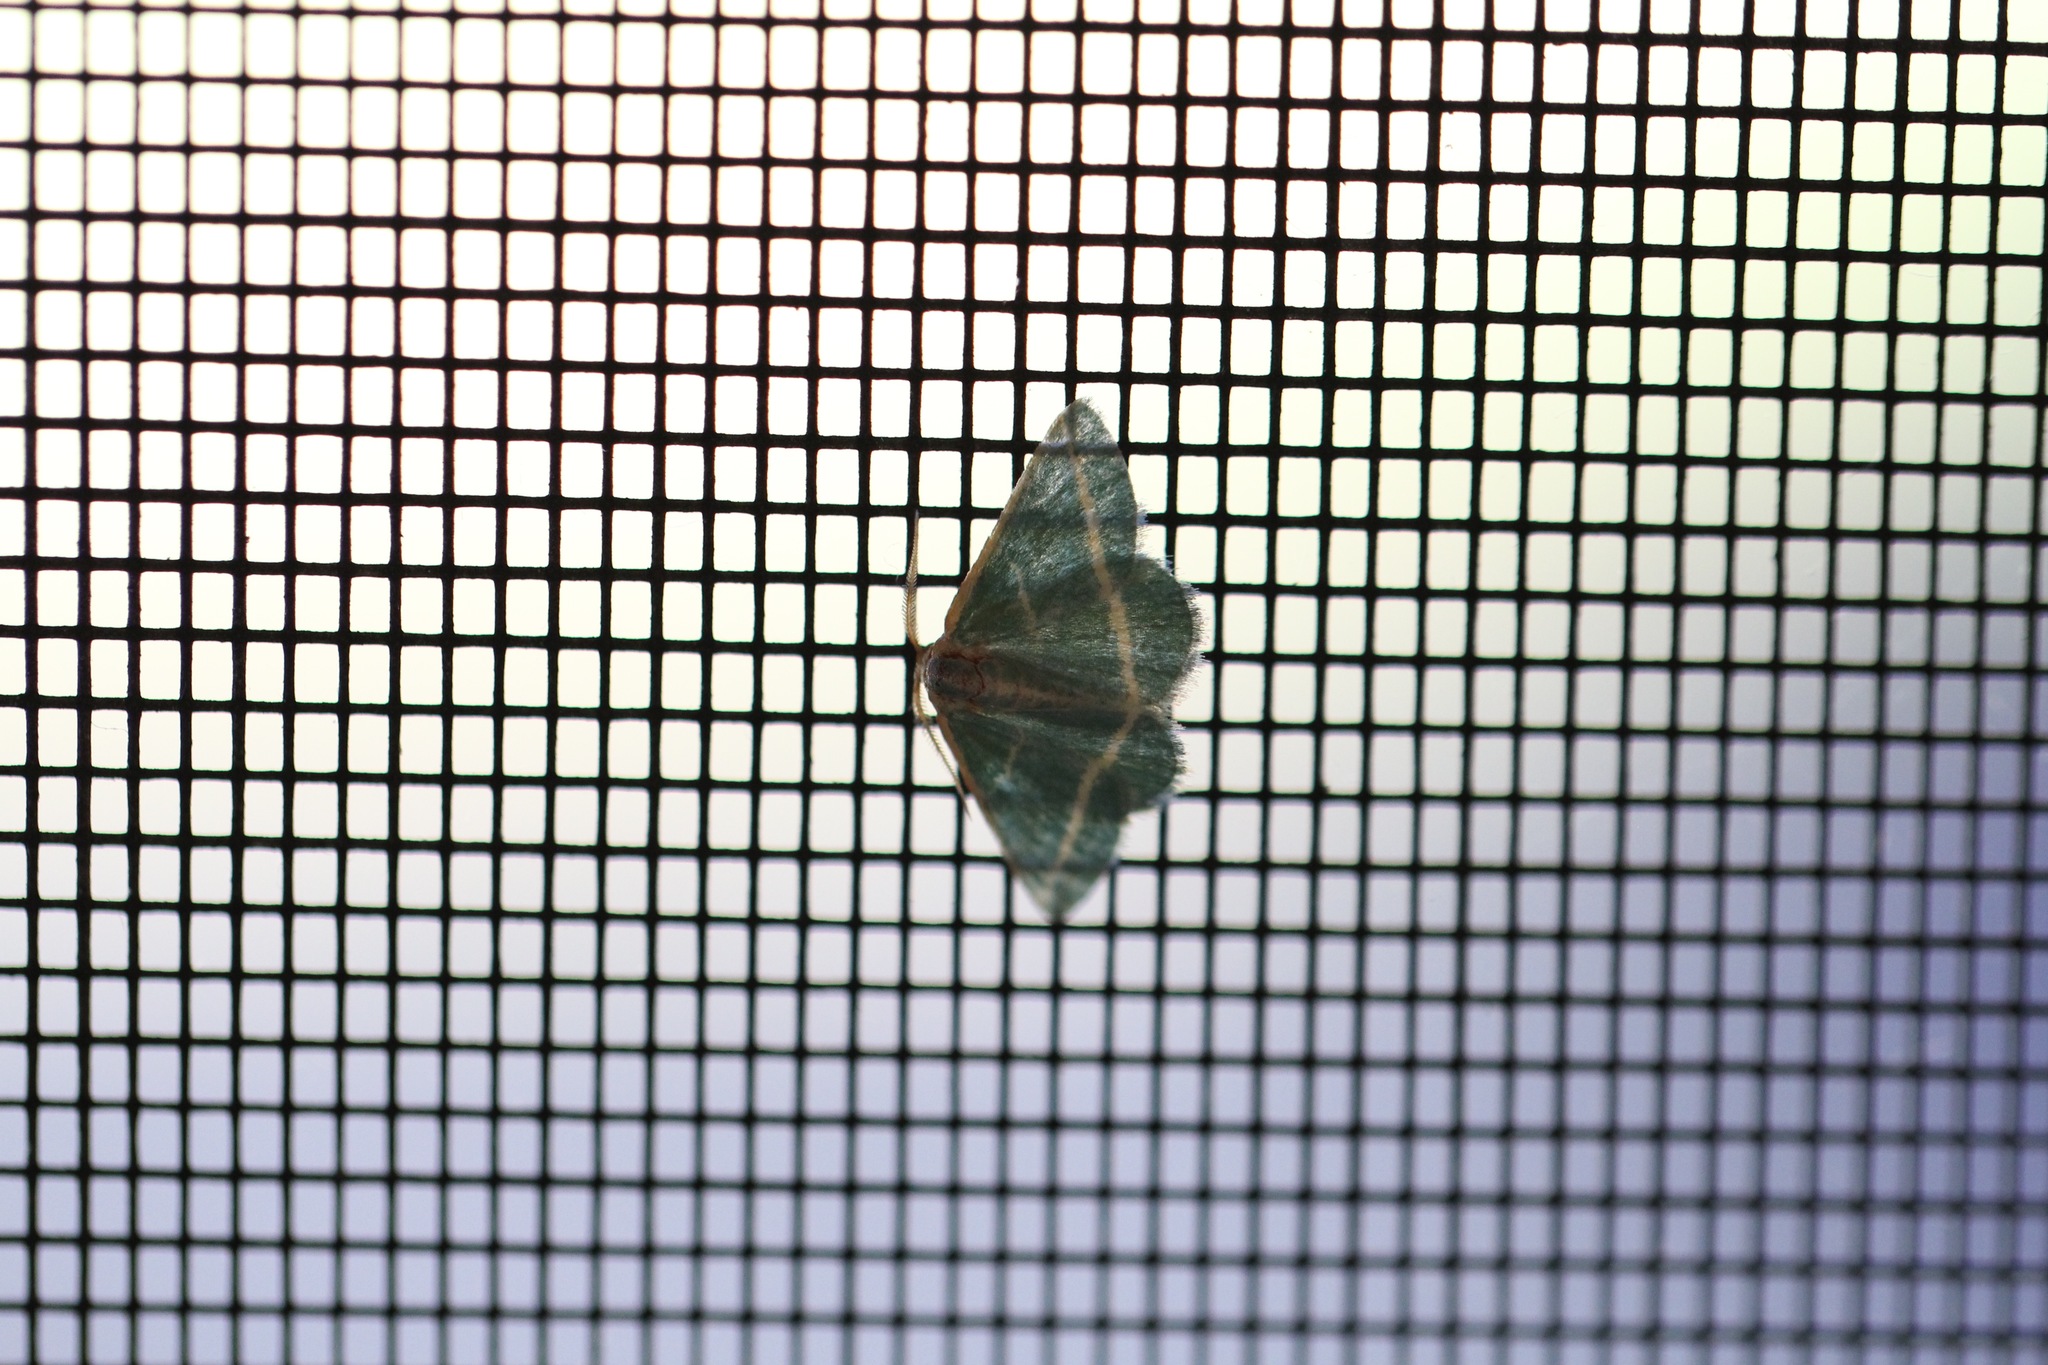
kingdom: Animalia
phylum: Arthropoda
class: Insecta
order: Lepidoptera
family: Geometridae
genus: Mixocera
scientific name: Mixocera latilineata
